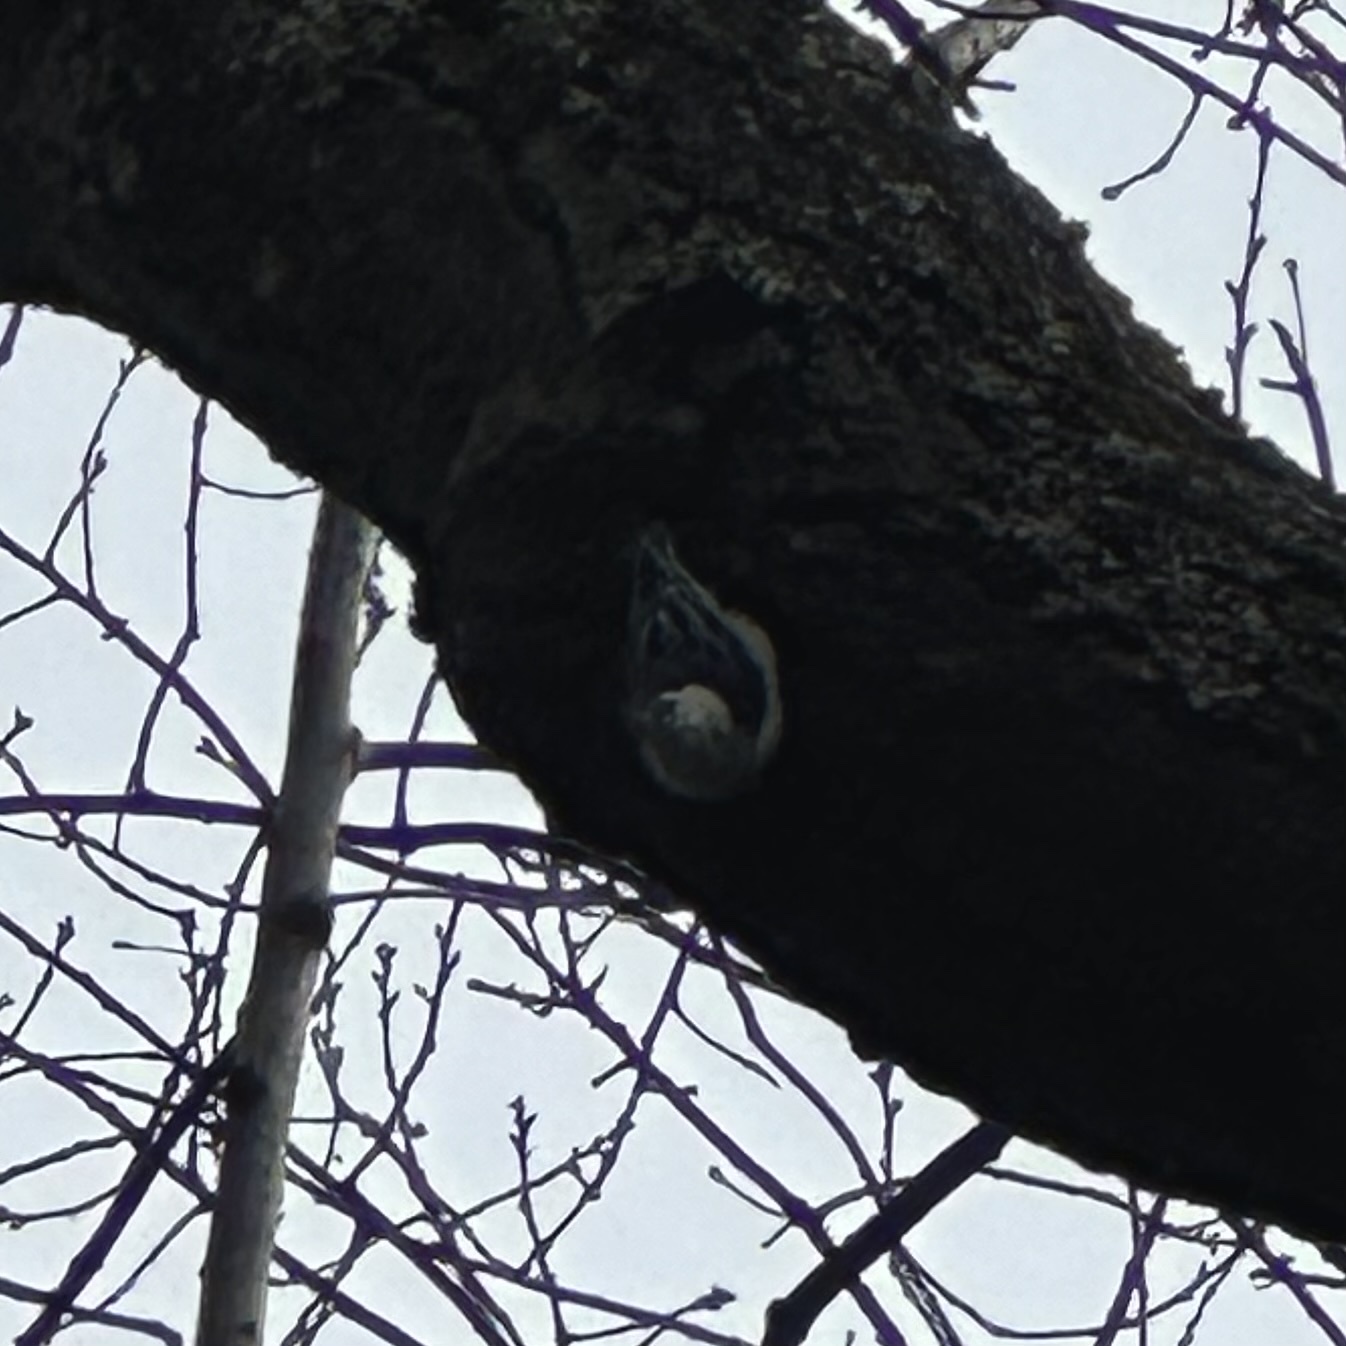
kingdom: Animalia
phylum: Chordata
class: Aves
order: Piciformes
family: Picidae
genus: Melanerpes
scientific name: Melanerpes carolinus
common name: Red-bellied woodpecker
